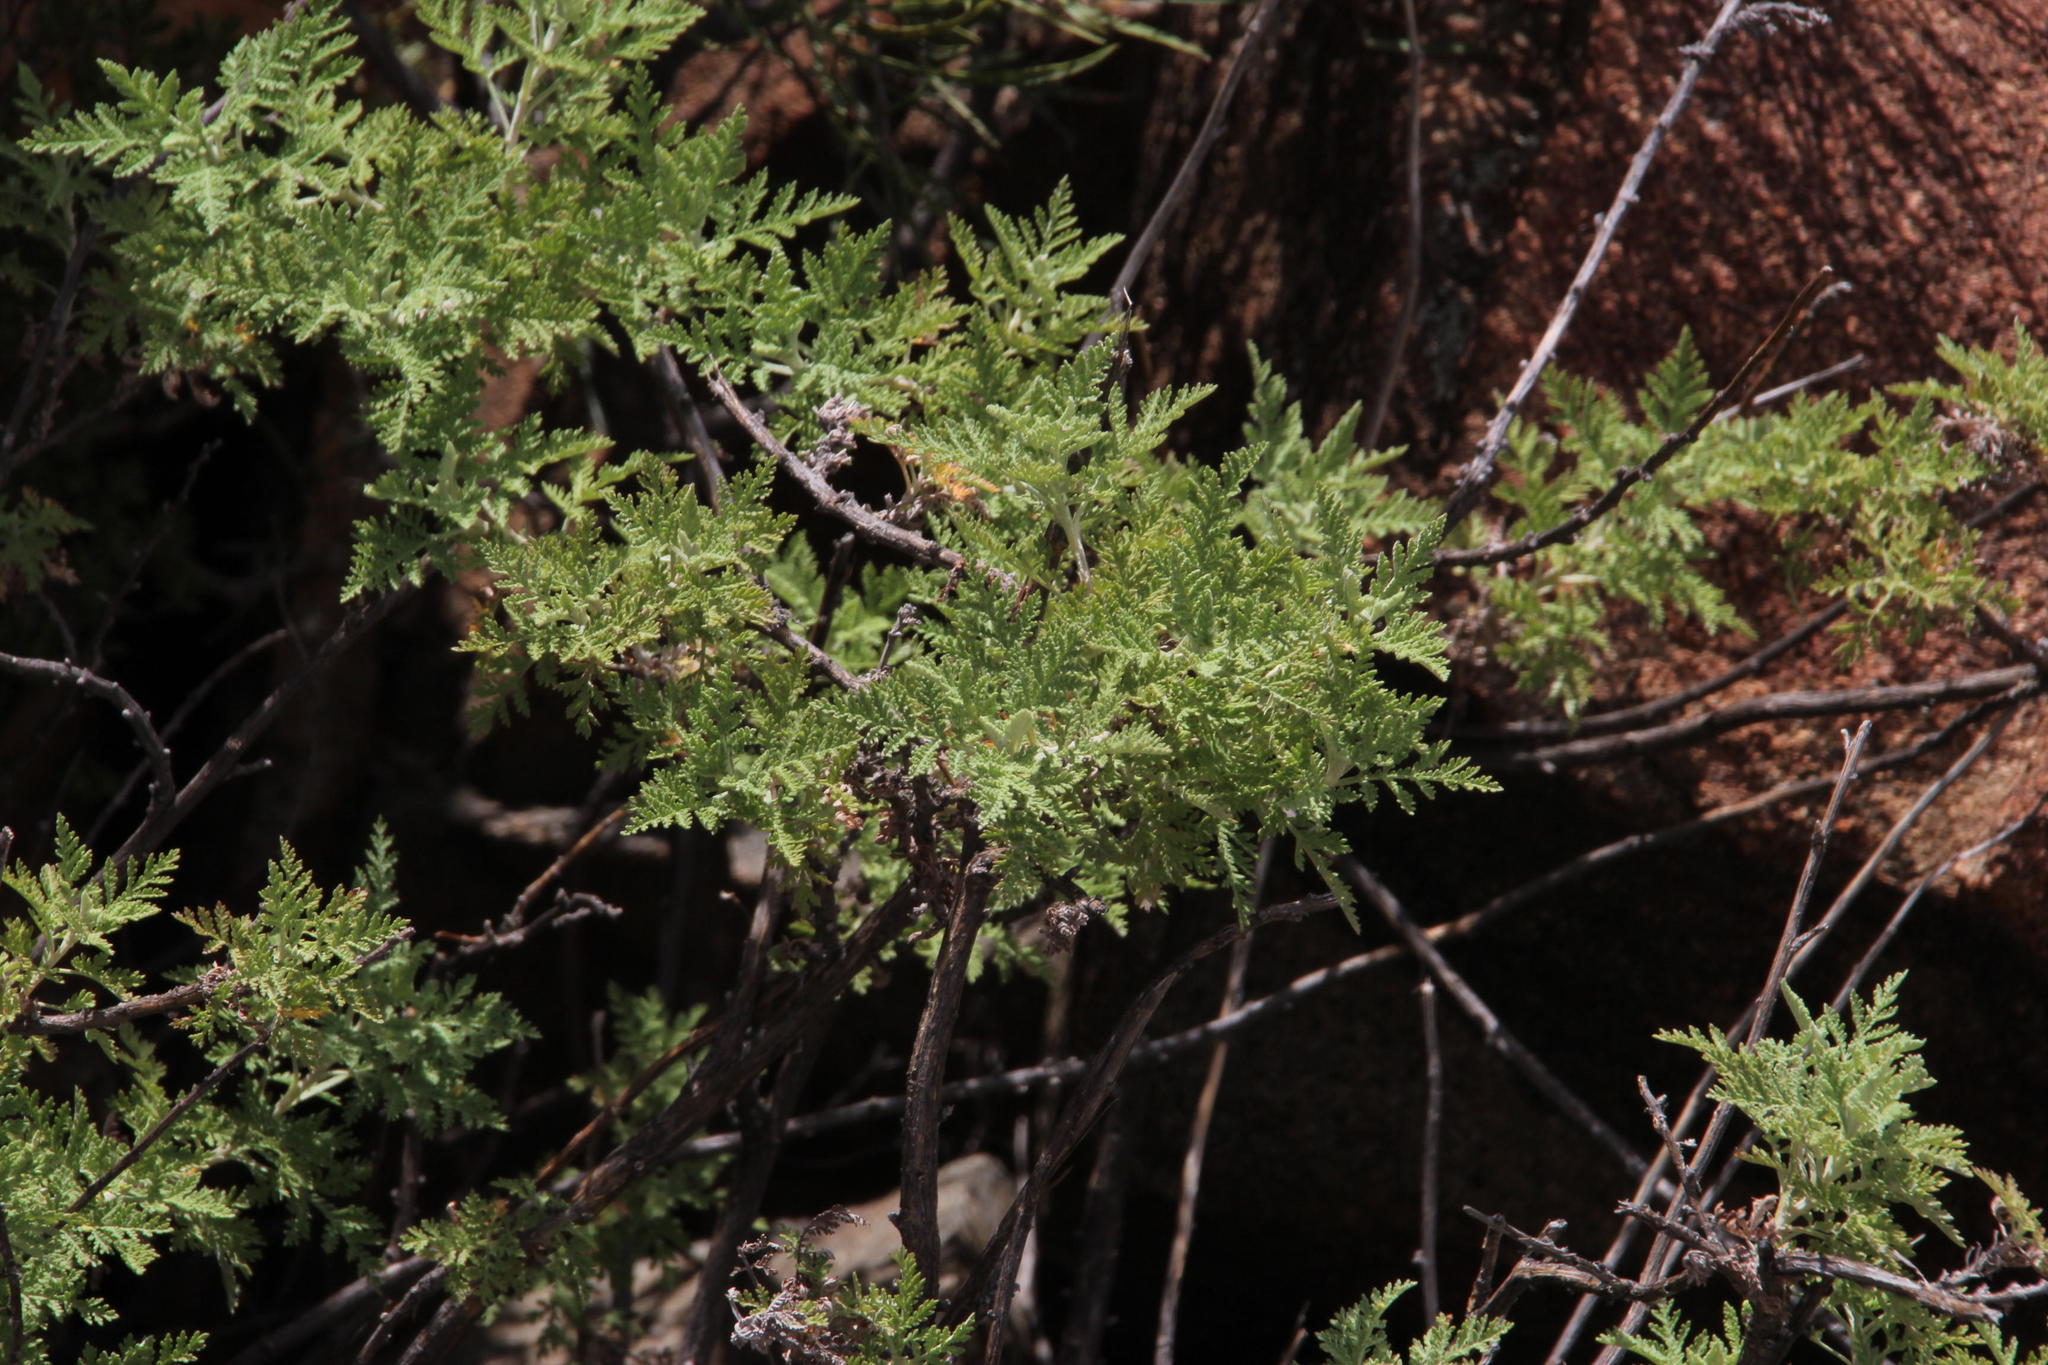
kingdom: Plantae
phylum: Tracheophyta
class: Magnoliopsida
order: Asterales
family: Asteraceae
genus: Artemisia
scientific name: Artemisia afra
